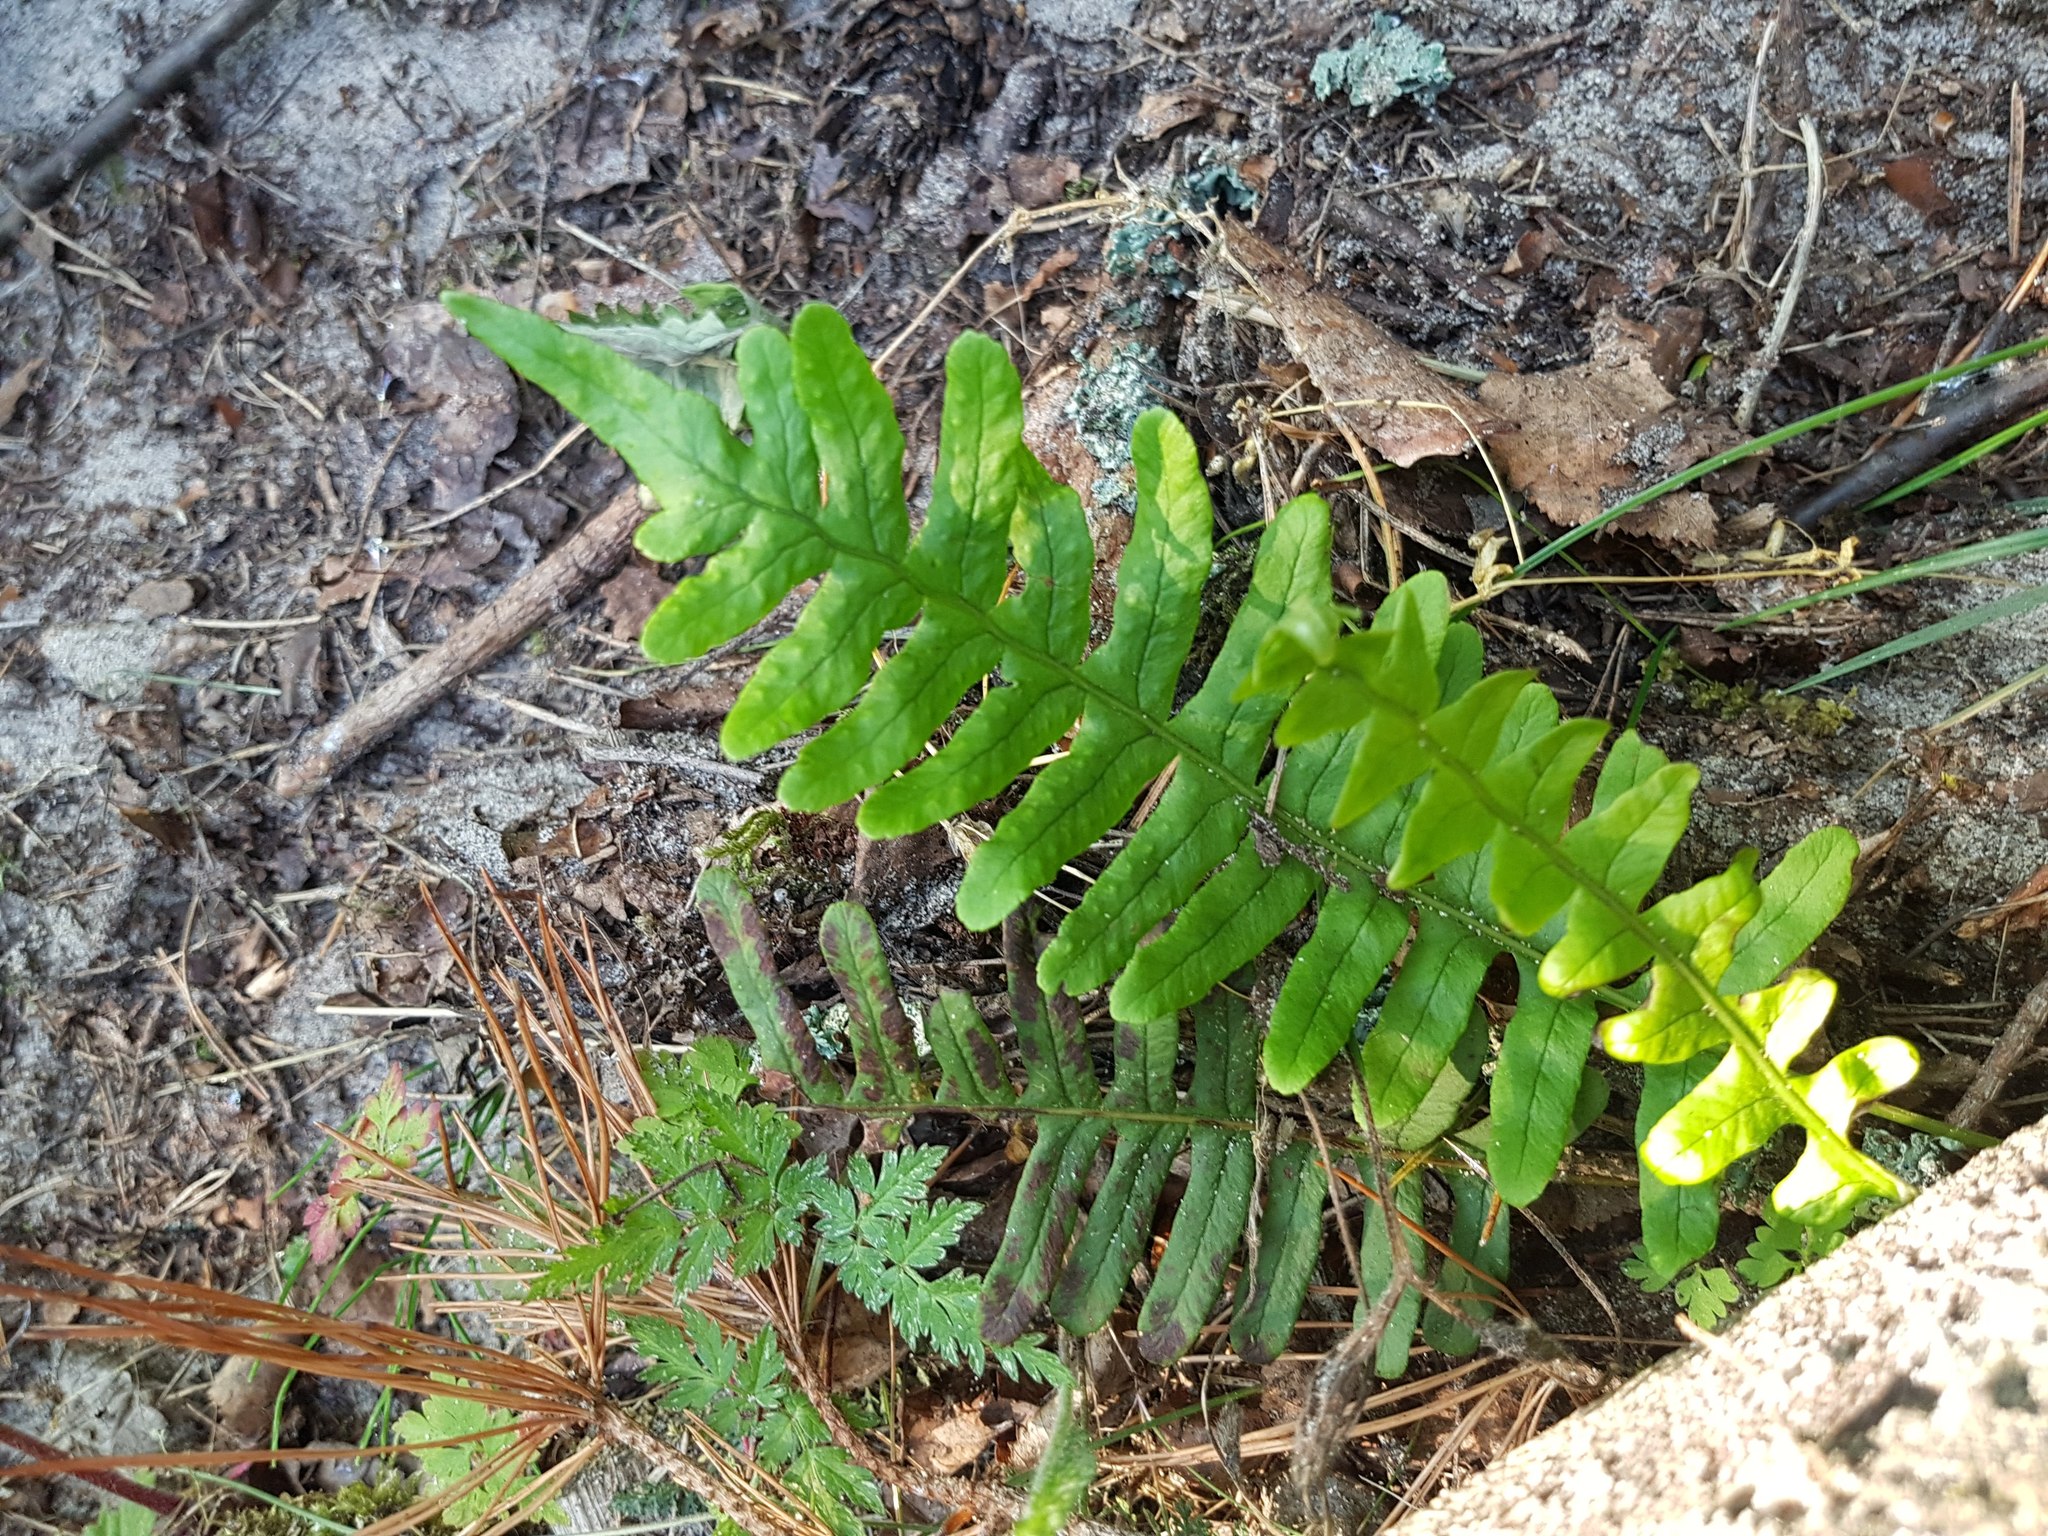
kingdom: Plantae
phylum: Tracheophyta
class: Polypodiopsida
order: Polypodiales
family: Polypodiaceae
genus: Polypodium
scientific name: Polypodium vulgare
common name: Common polypody
